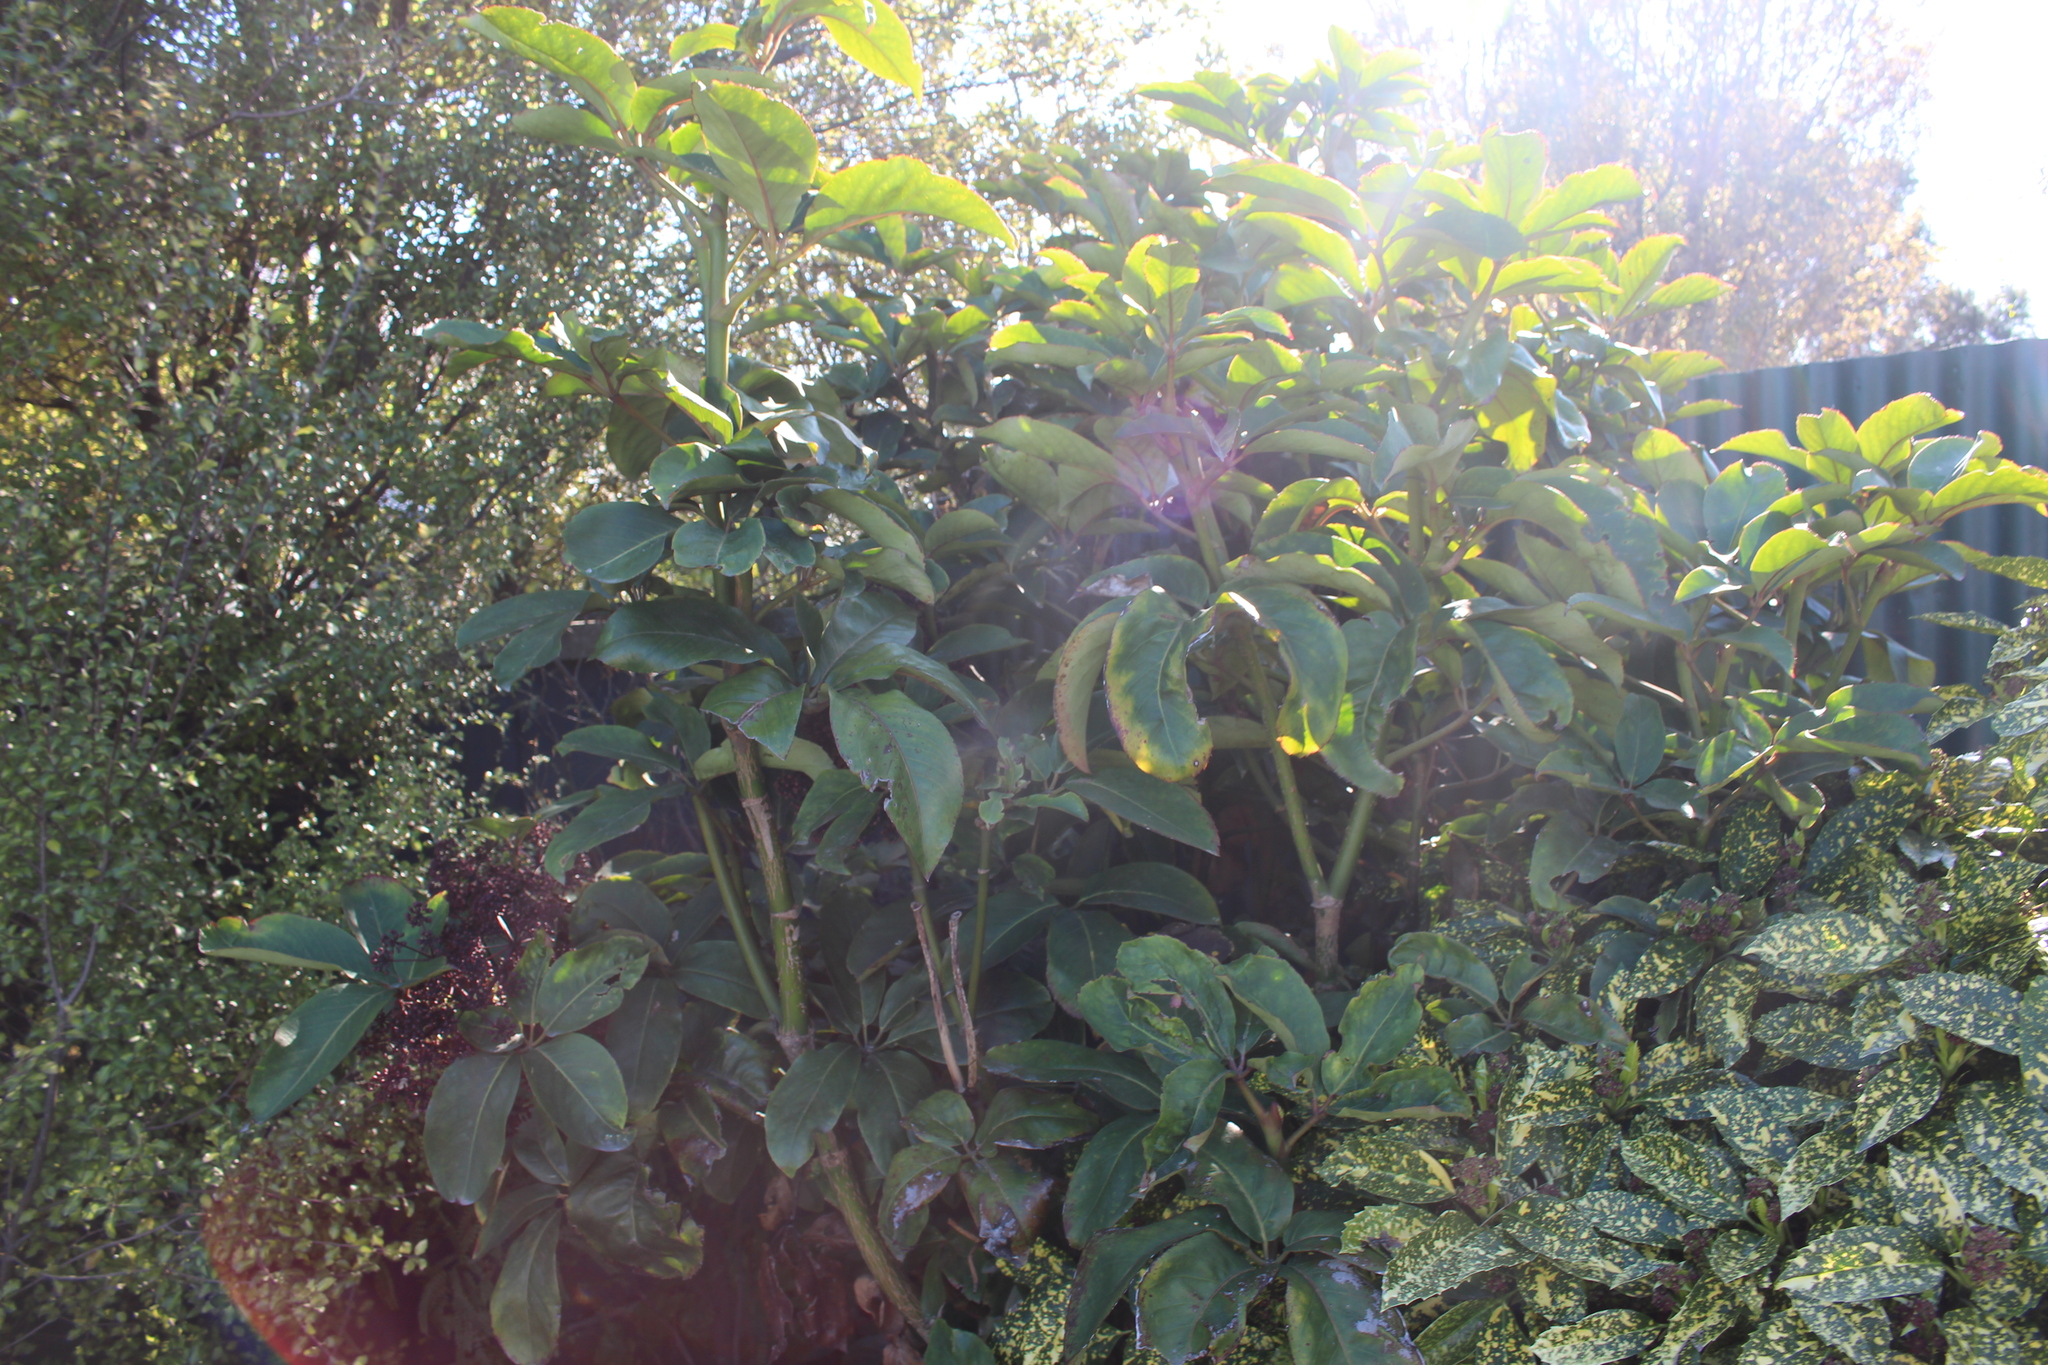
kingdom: Plantae
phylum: Tracheophyta
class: Magnoliopsida
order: Apiales
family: Araliaceae
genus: Neopanax
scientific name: Neopanax laetus
